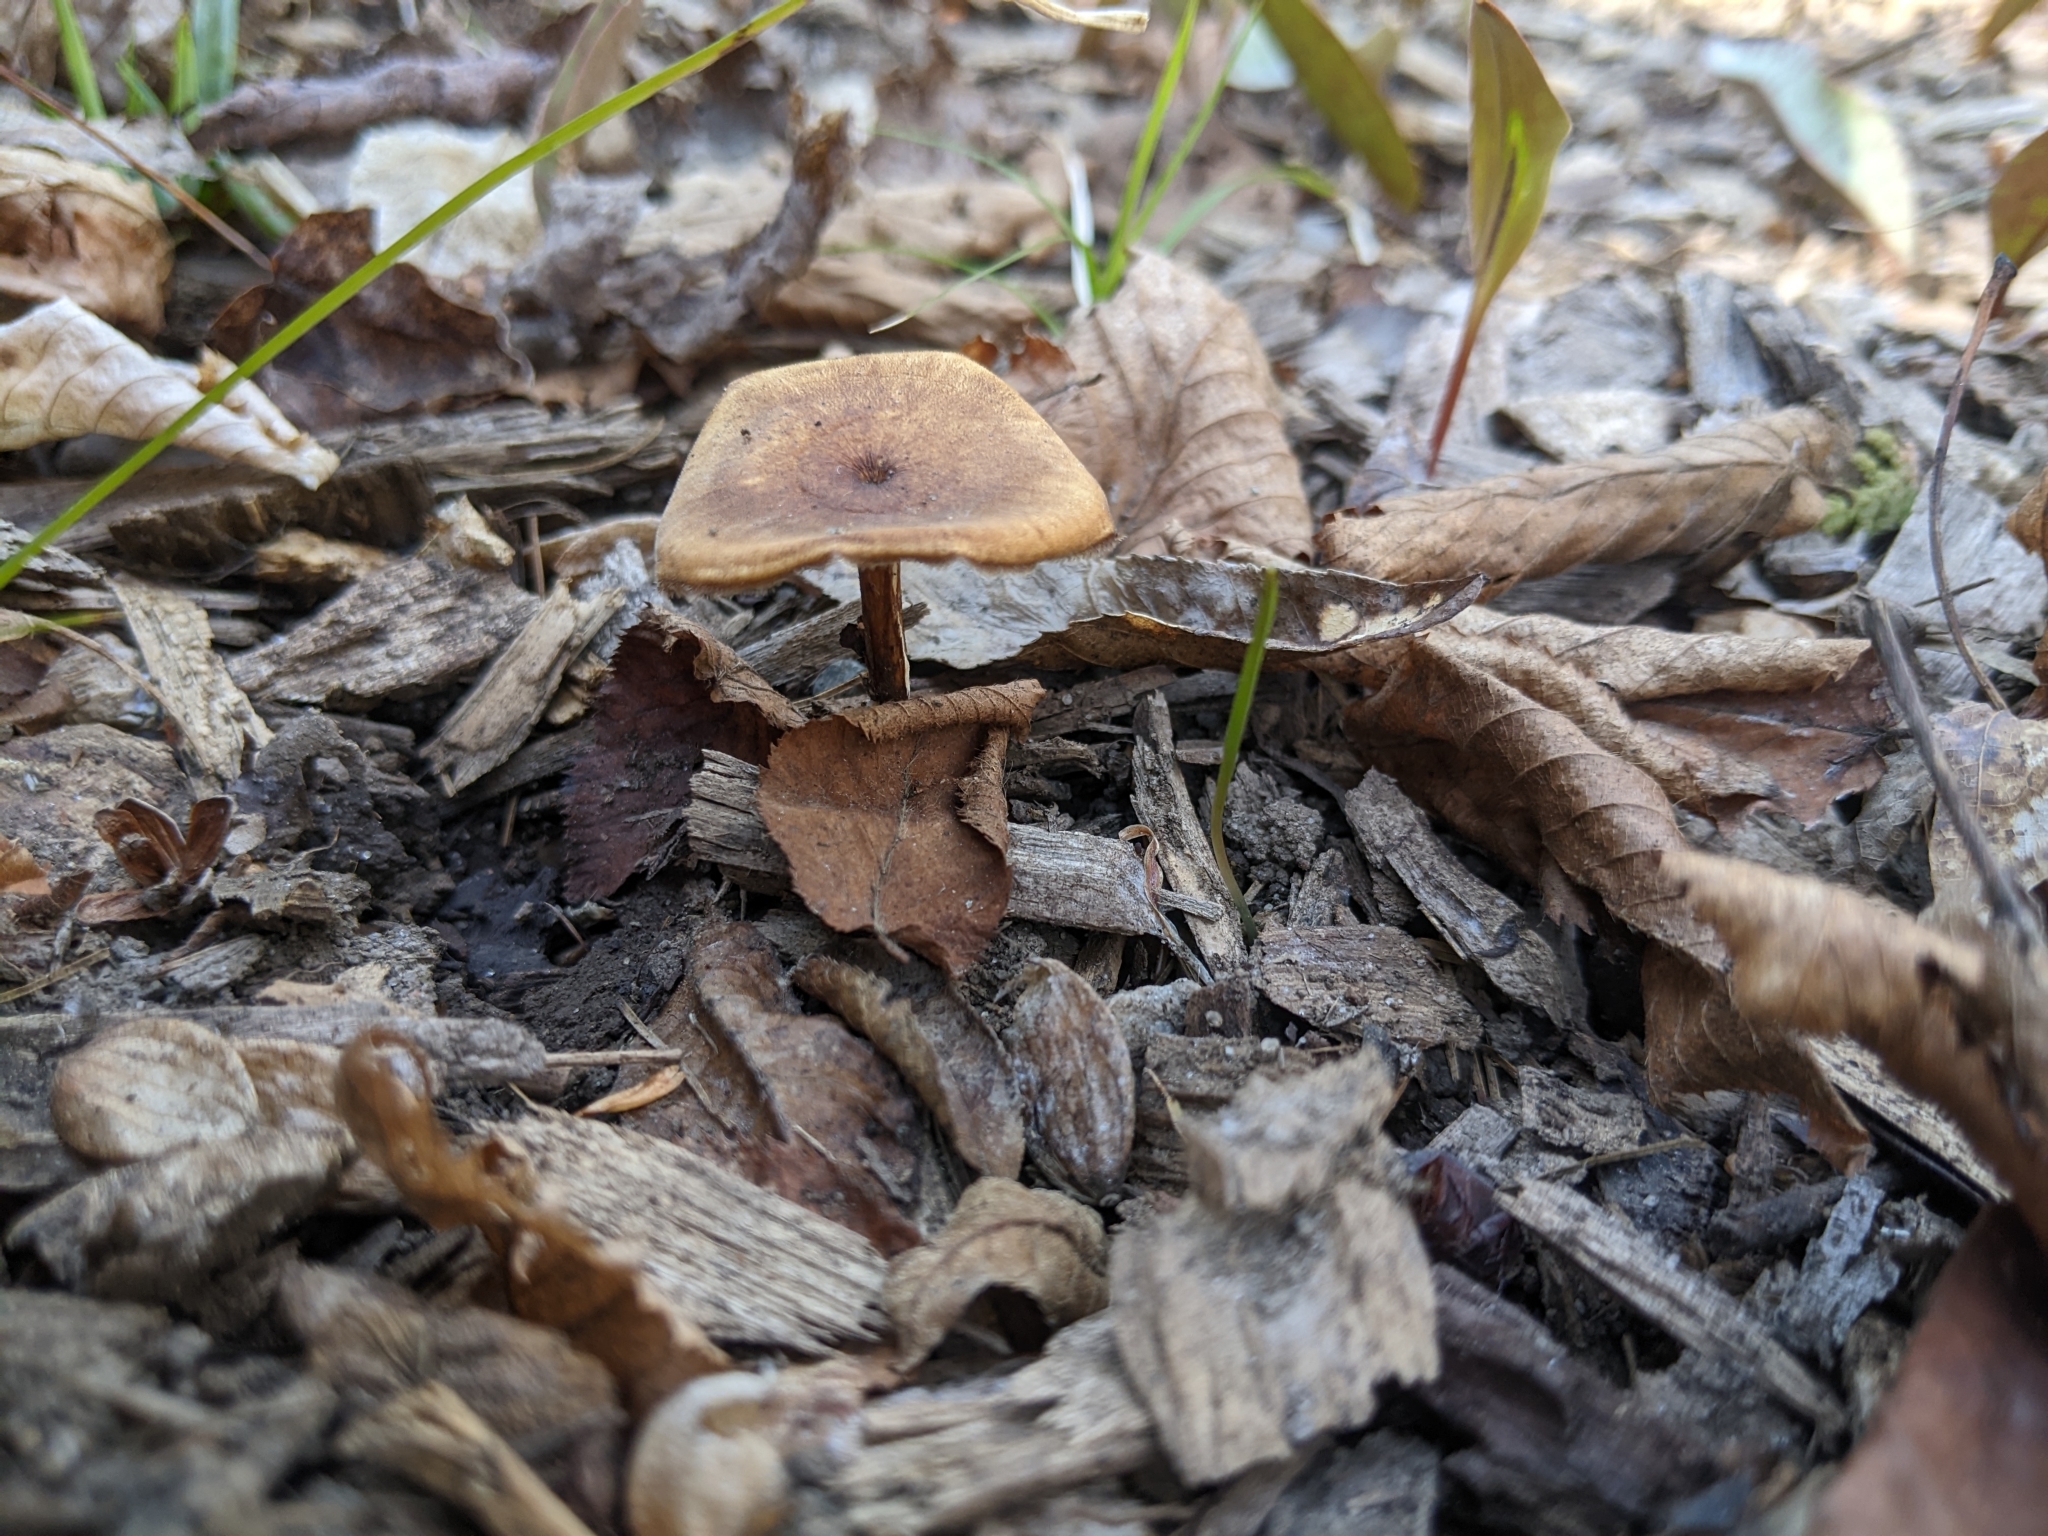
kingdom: Fungi
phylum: Basidiomycota
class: Agaricomycetes
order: Polyporales
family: Polyporaceae
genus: Lentinus
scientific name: Lentinus brumalis
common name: Winter polypore
